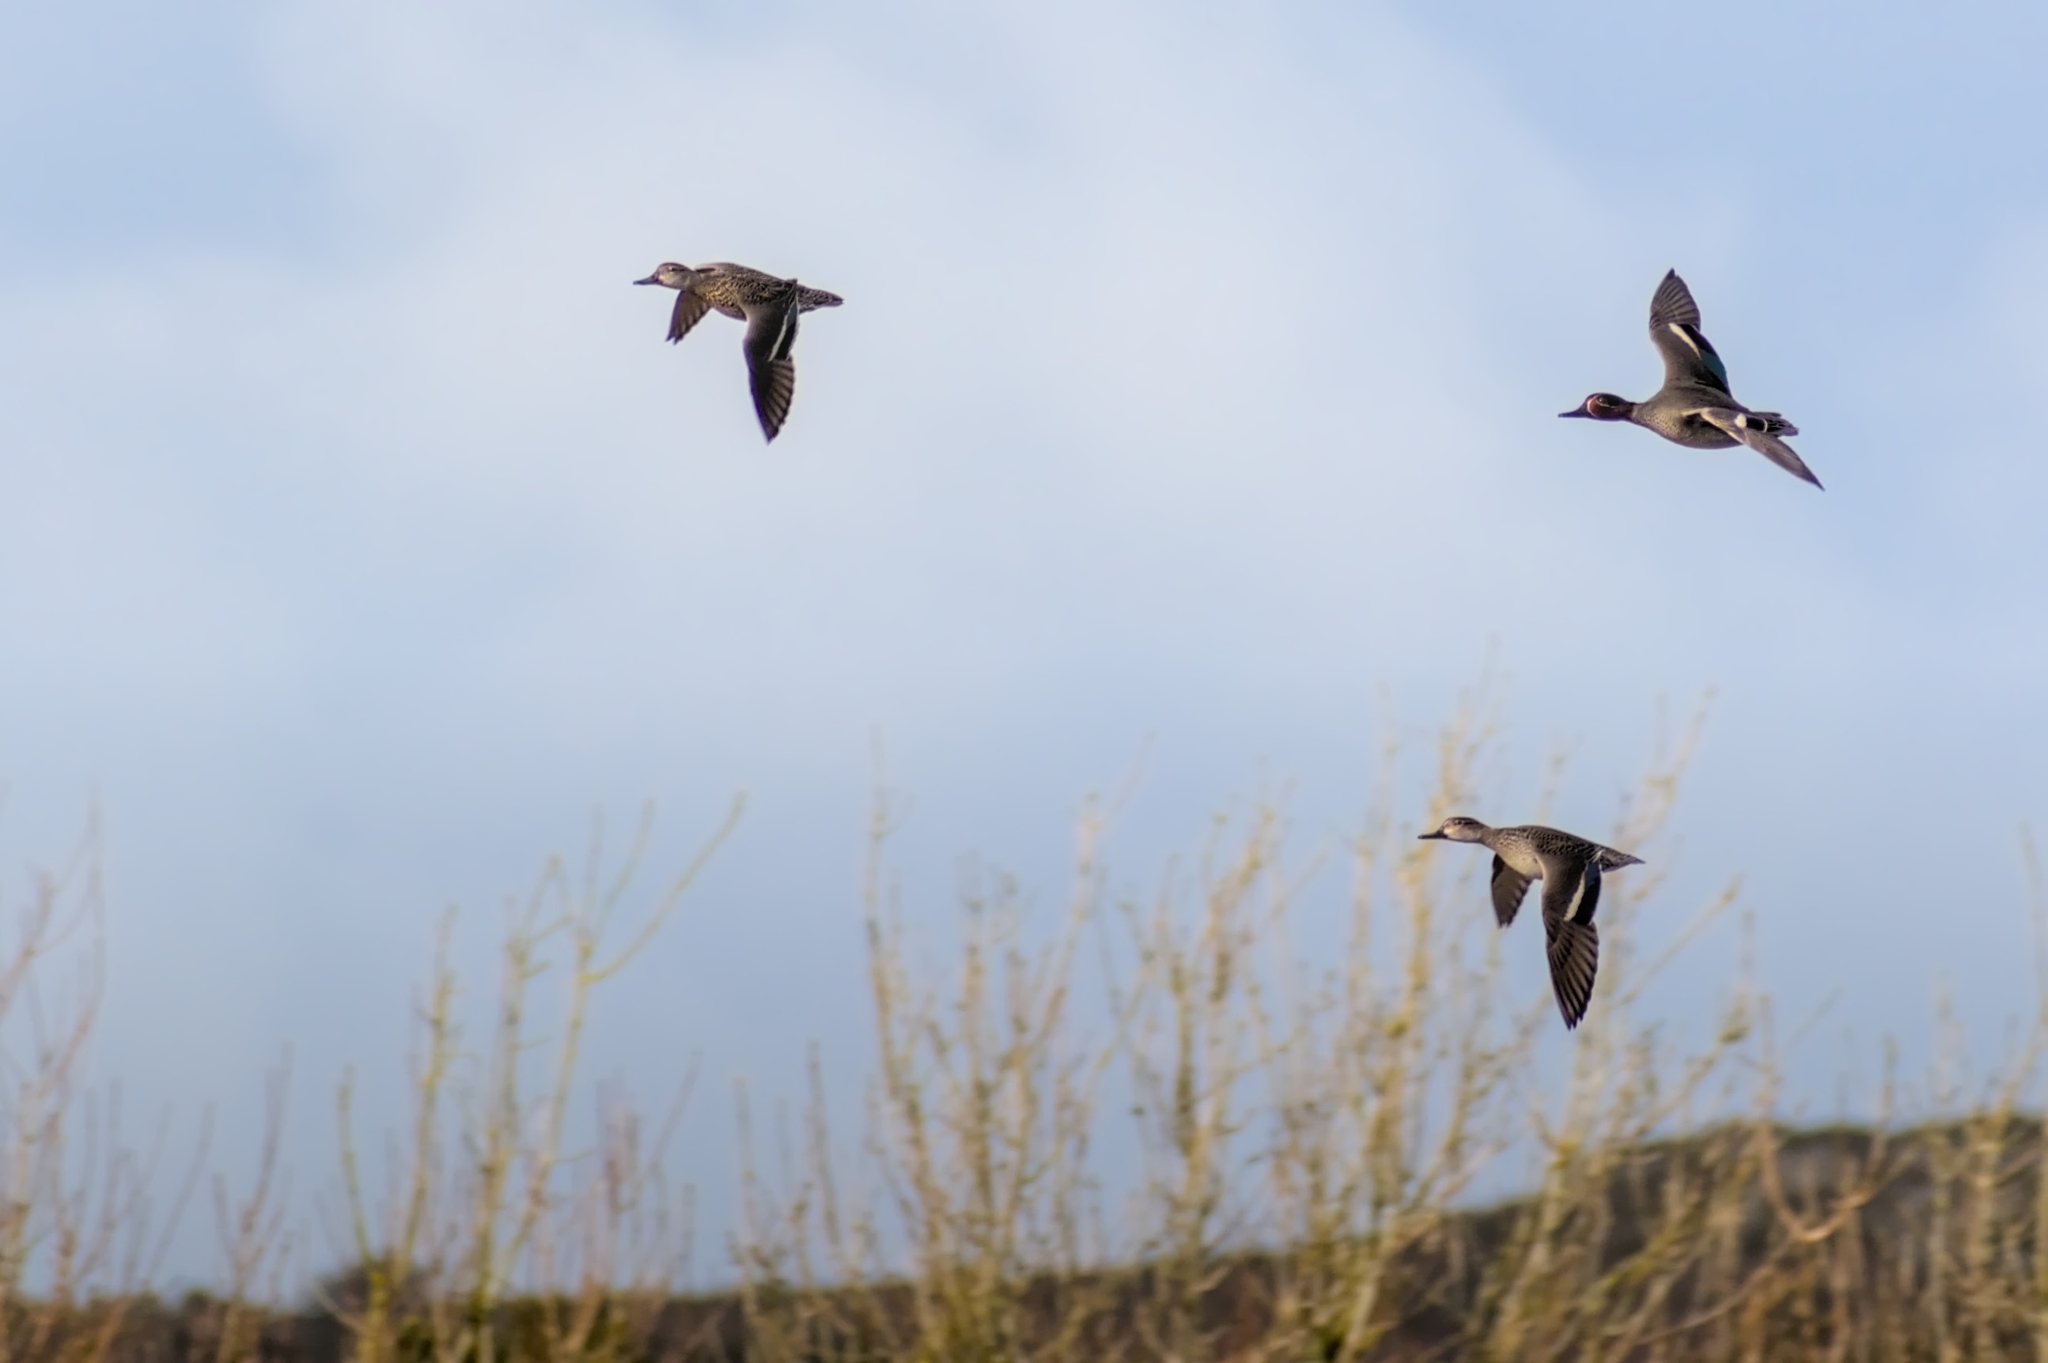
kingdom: Animalia
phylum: Chordata
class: Aves
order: Anseriformes
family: Anatidae
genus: Anas
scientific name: Anas crecca
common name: Eurasian teal
